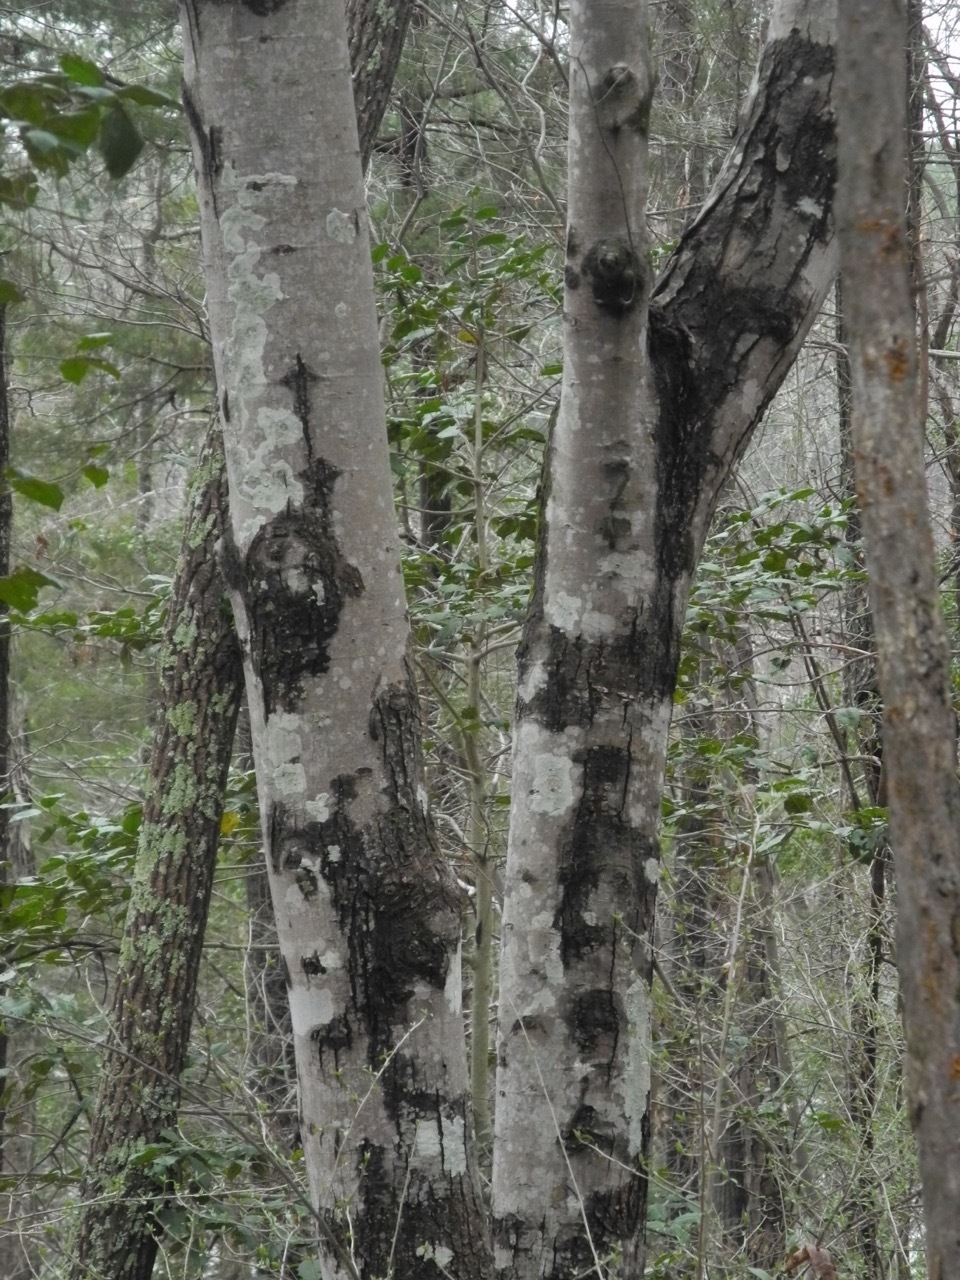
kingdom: Plantae
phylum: Tracheophyta
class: Magnoliopsida
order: Sapindales
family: Sapindaceae
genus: Acer
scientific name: Acer rubrum
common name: Red maple
